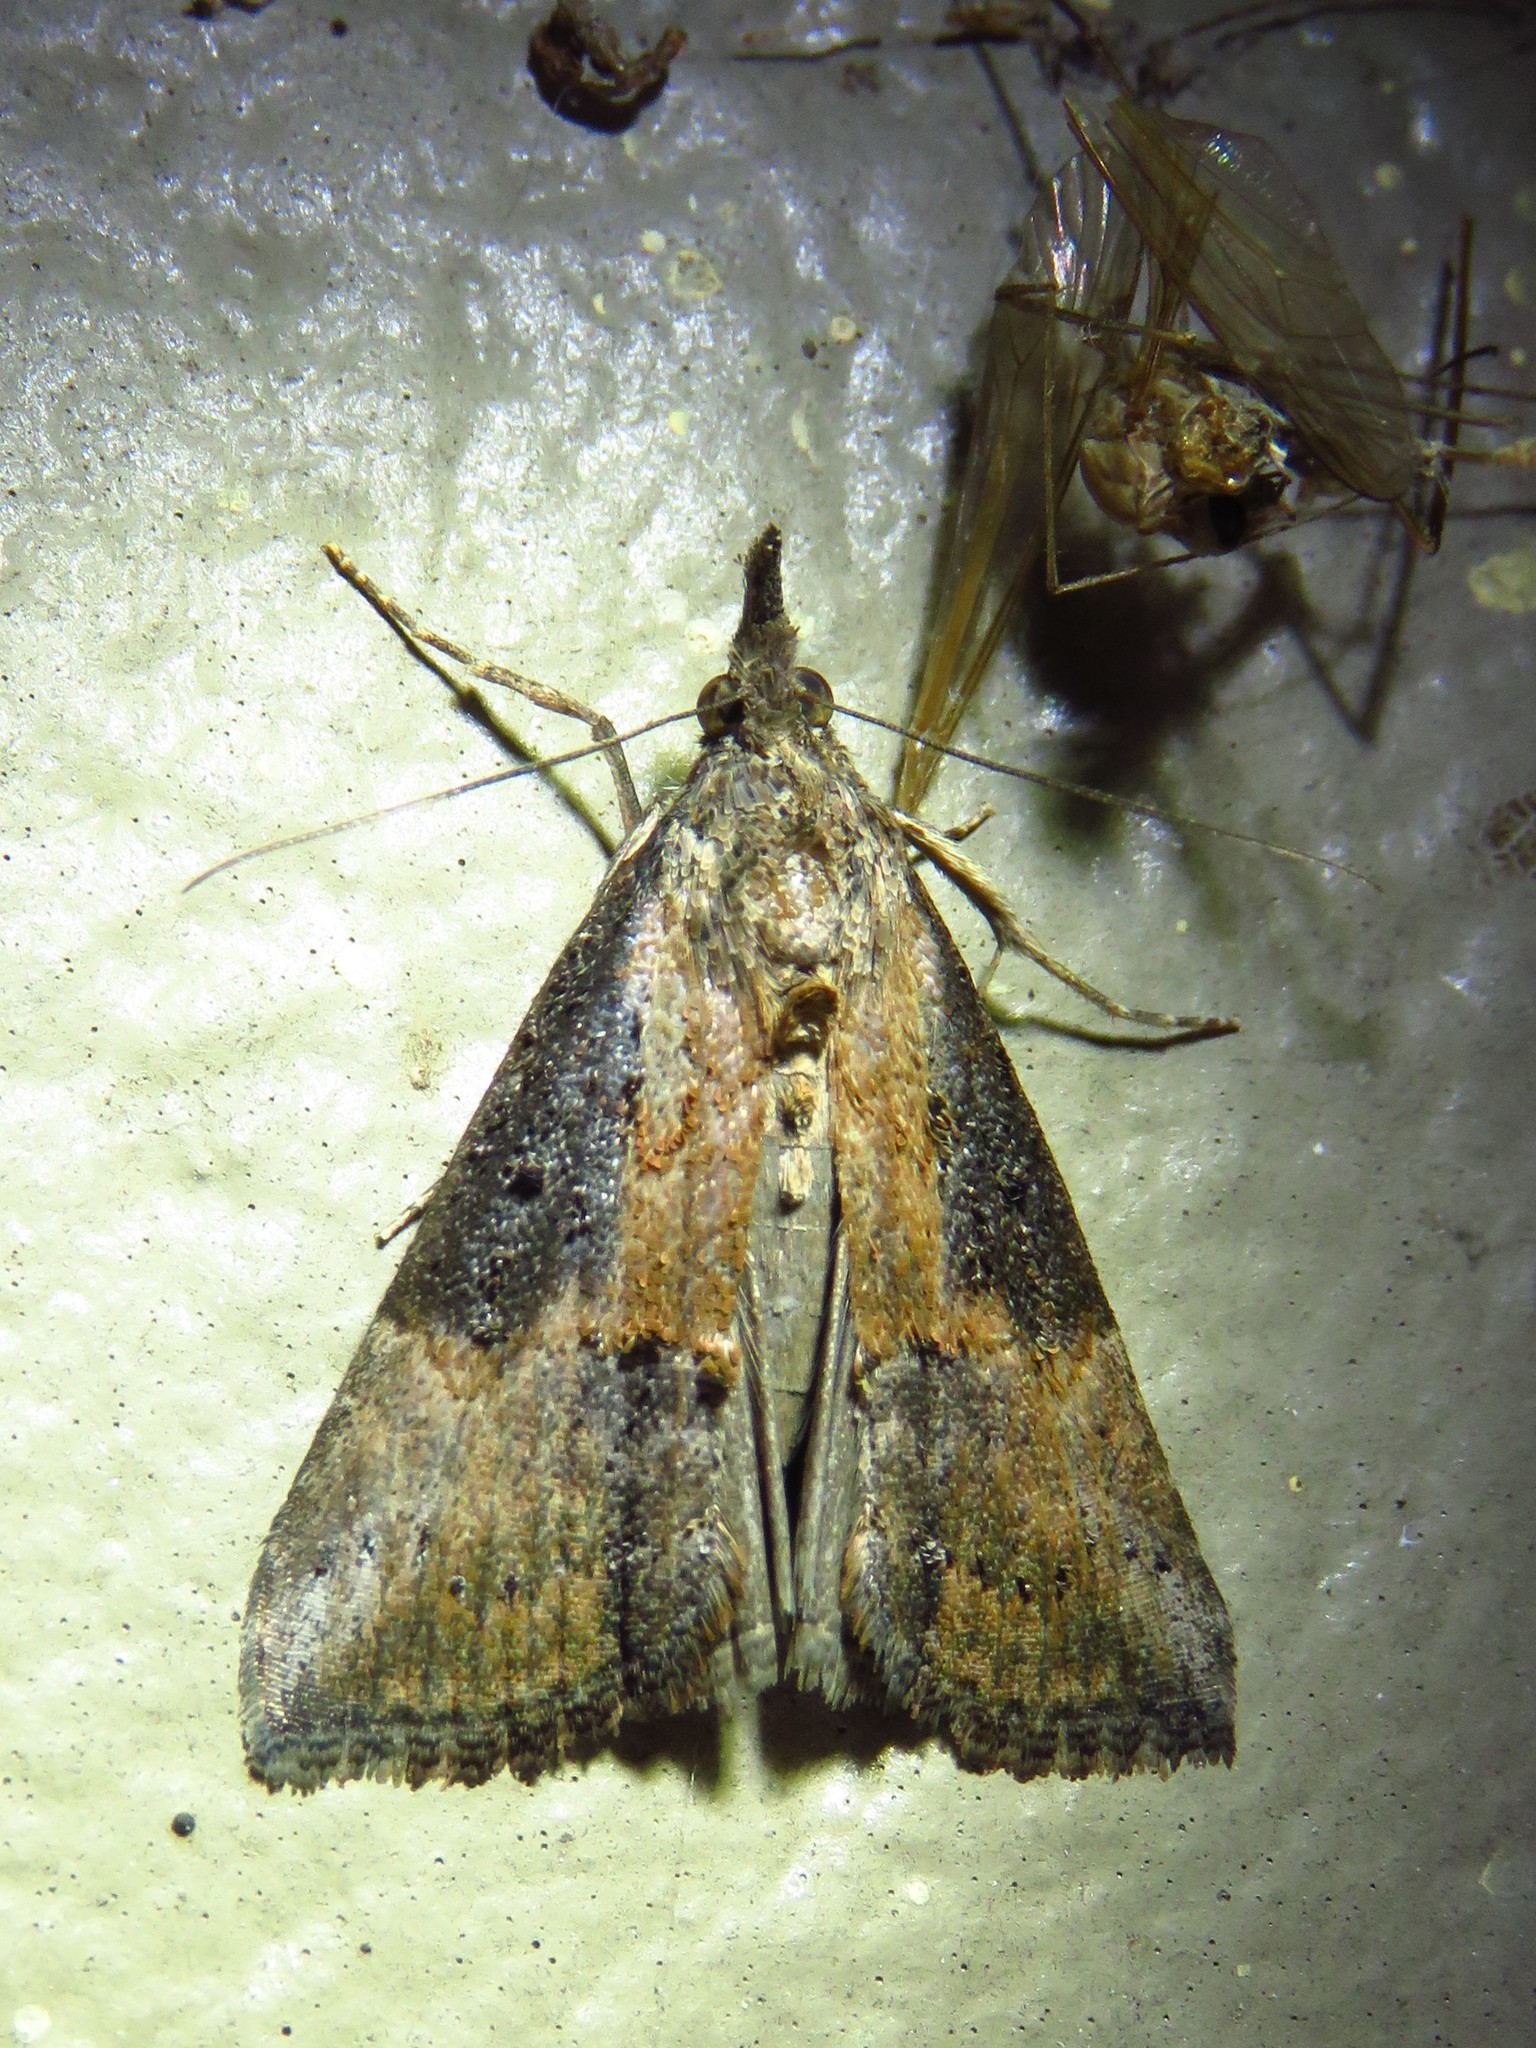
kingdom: Animalia
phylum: Arthropoda
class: Insecta
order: Lepidoptera
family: Erebidae
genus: Hypena
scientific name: Hypena scabra
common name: Green cloverworm
